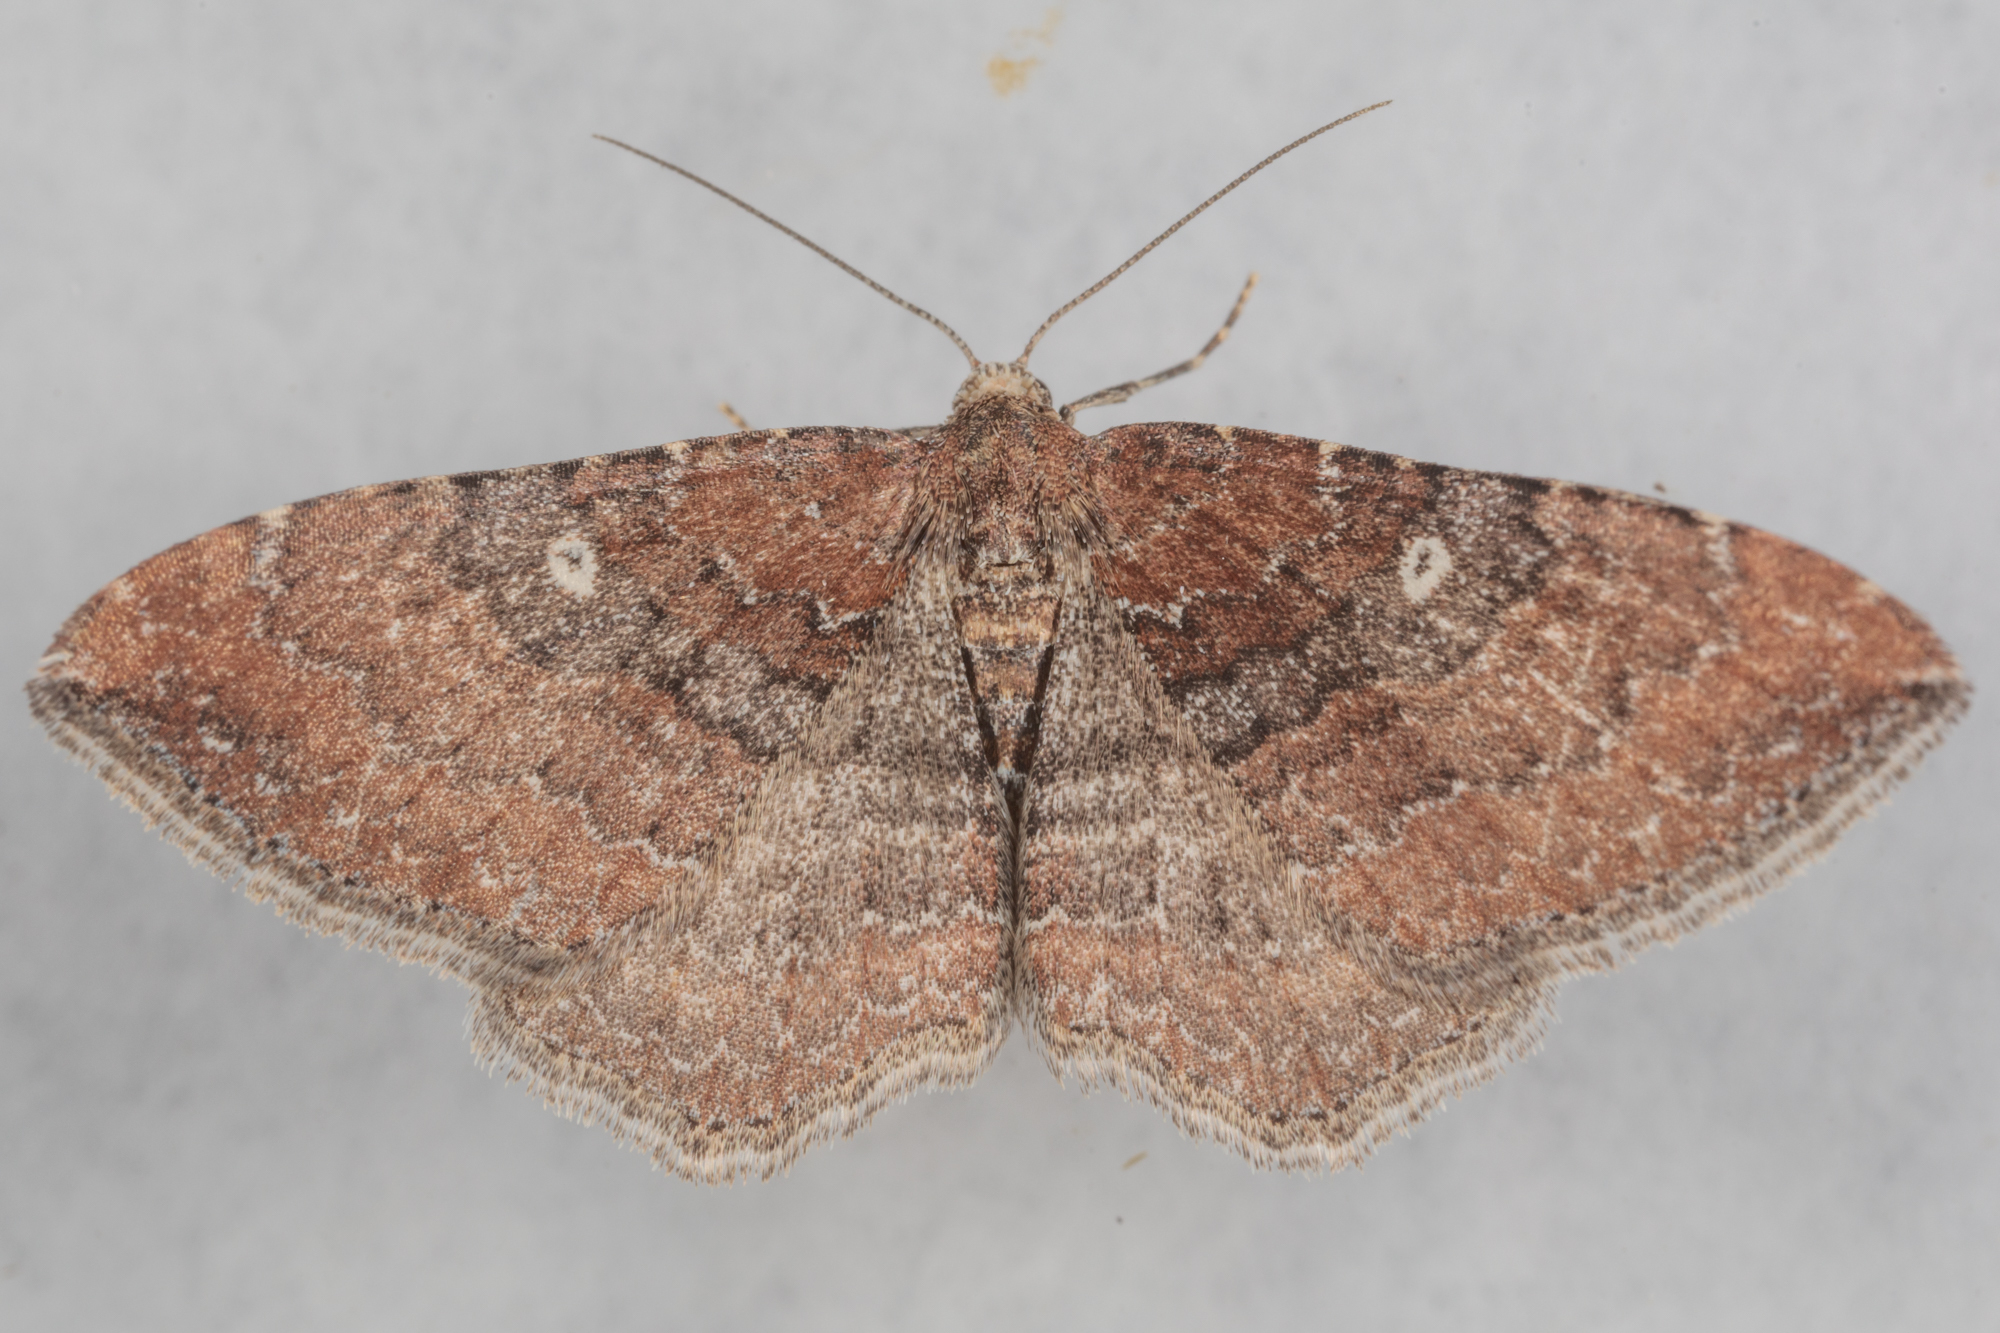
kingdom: Animalia
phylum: Arthropoda
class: Insecta
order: Lepidoptera
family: Geometridae
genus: Orthonama
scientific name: Orthonama obstipata
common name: The gem
